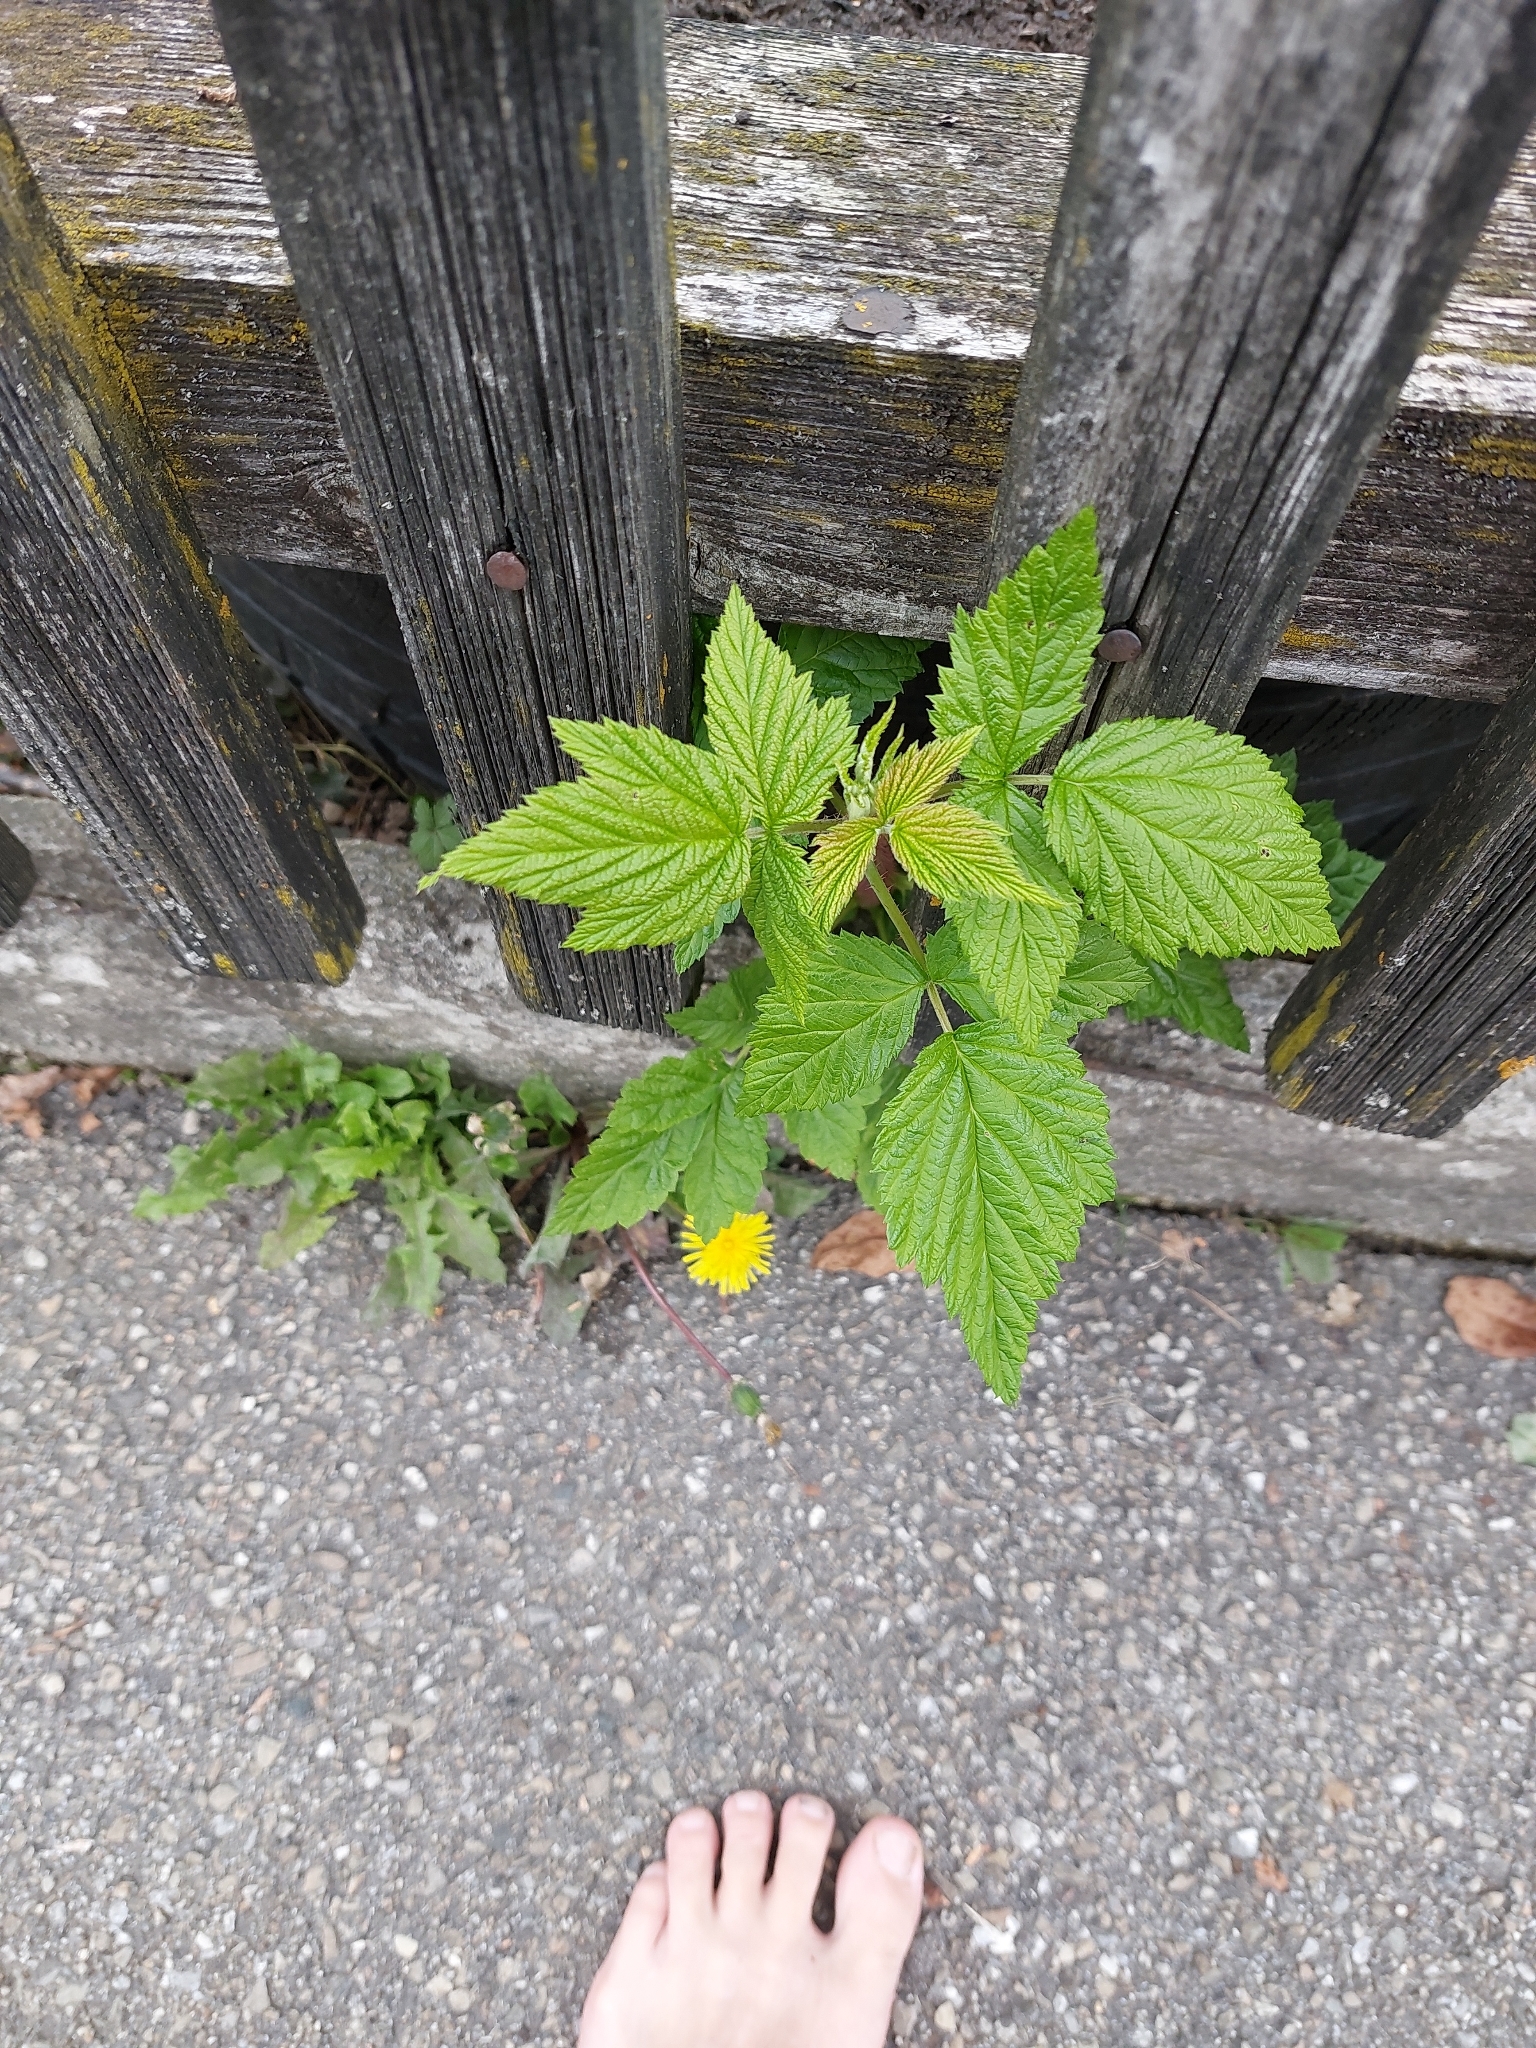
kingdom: Plantae
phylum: Tracheophyta
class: Magnoliopsida
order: Rosales
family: Rosaceae
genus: Rubus
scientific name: Rubus idaeus
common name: Raspberry
